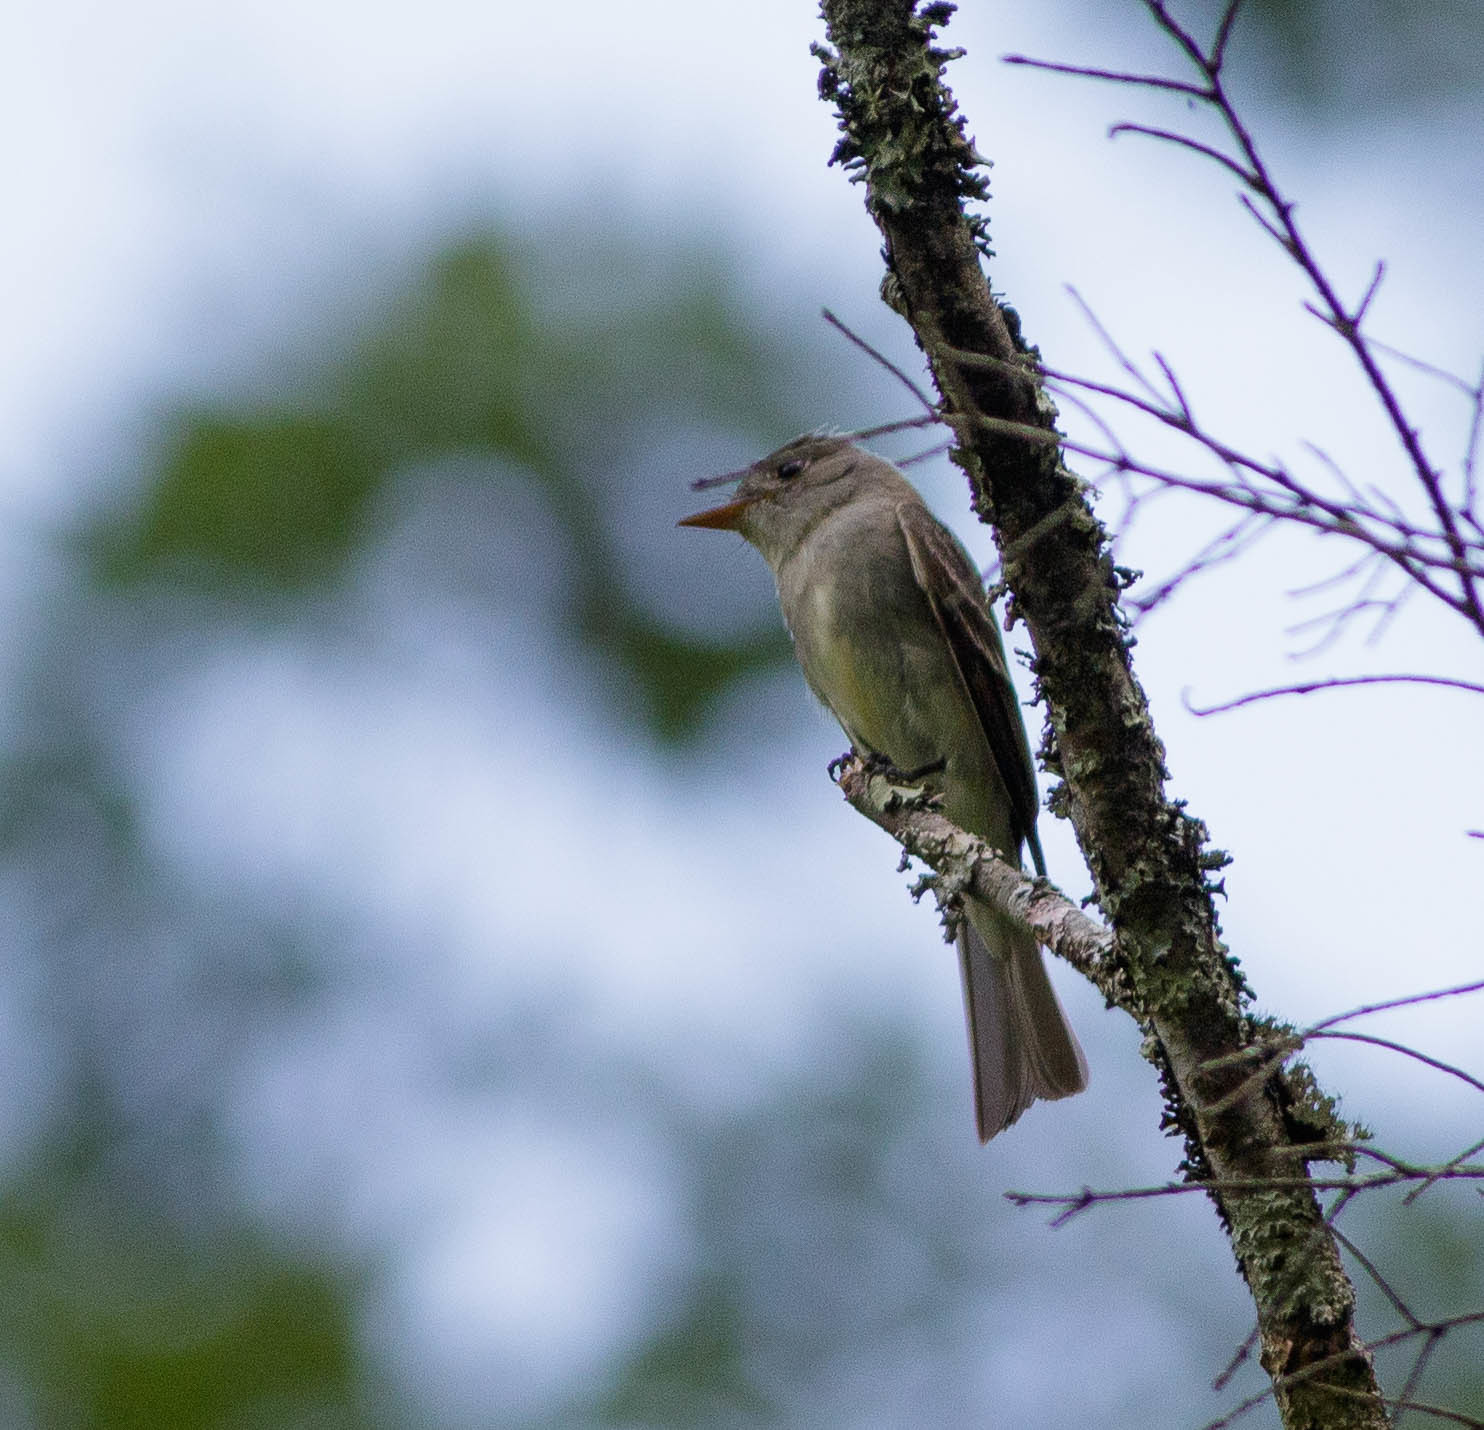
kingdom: Animalia
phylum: Chordata
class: Aves
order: Passeriformes
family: Tyrannidae
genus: Contopus
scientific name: Contopus virens
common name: Eastern wood-pewee
